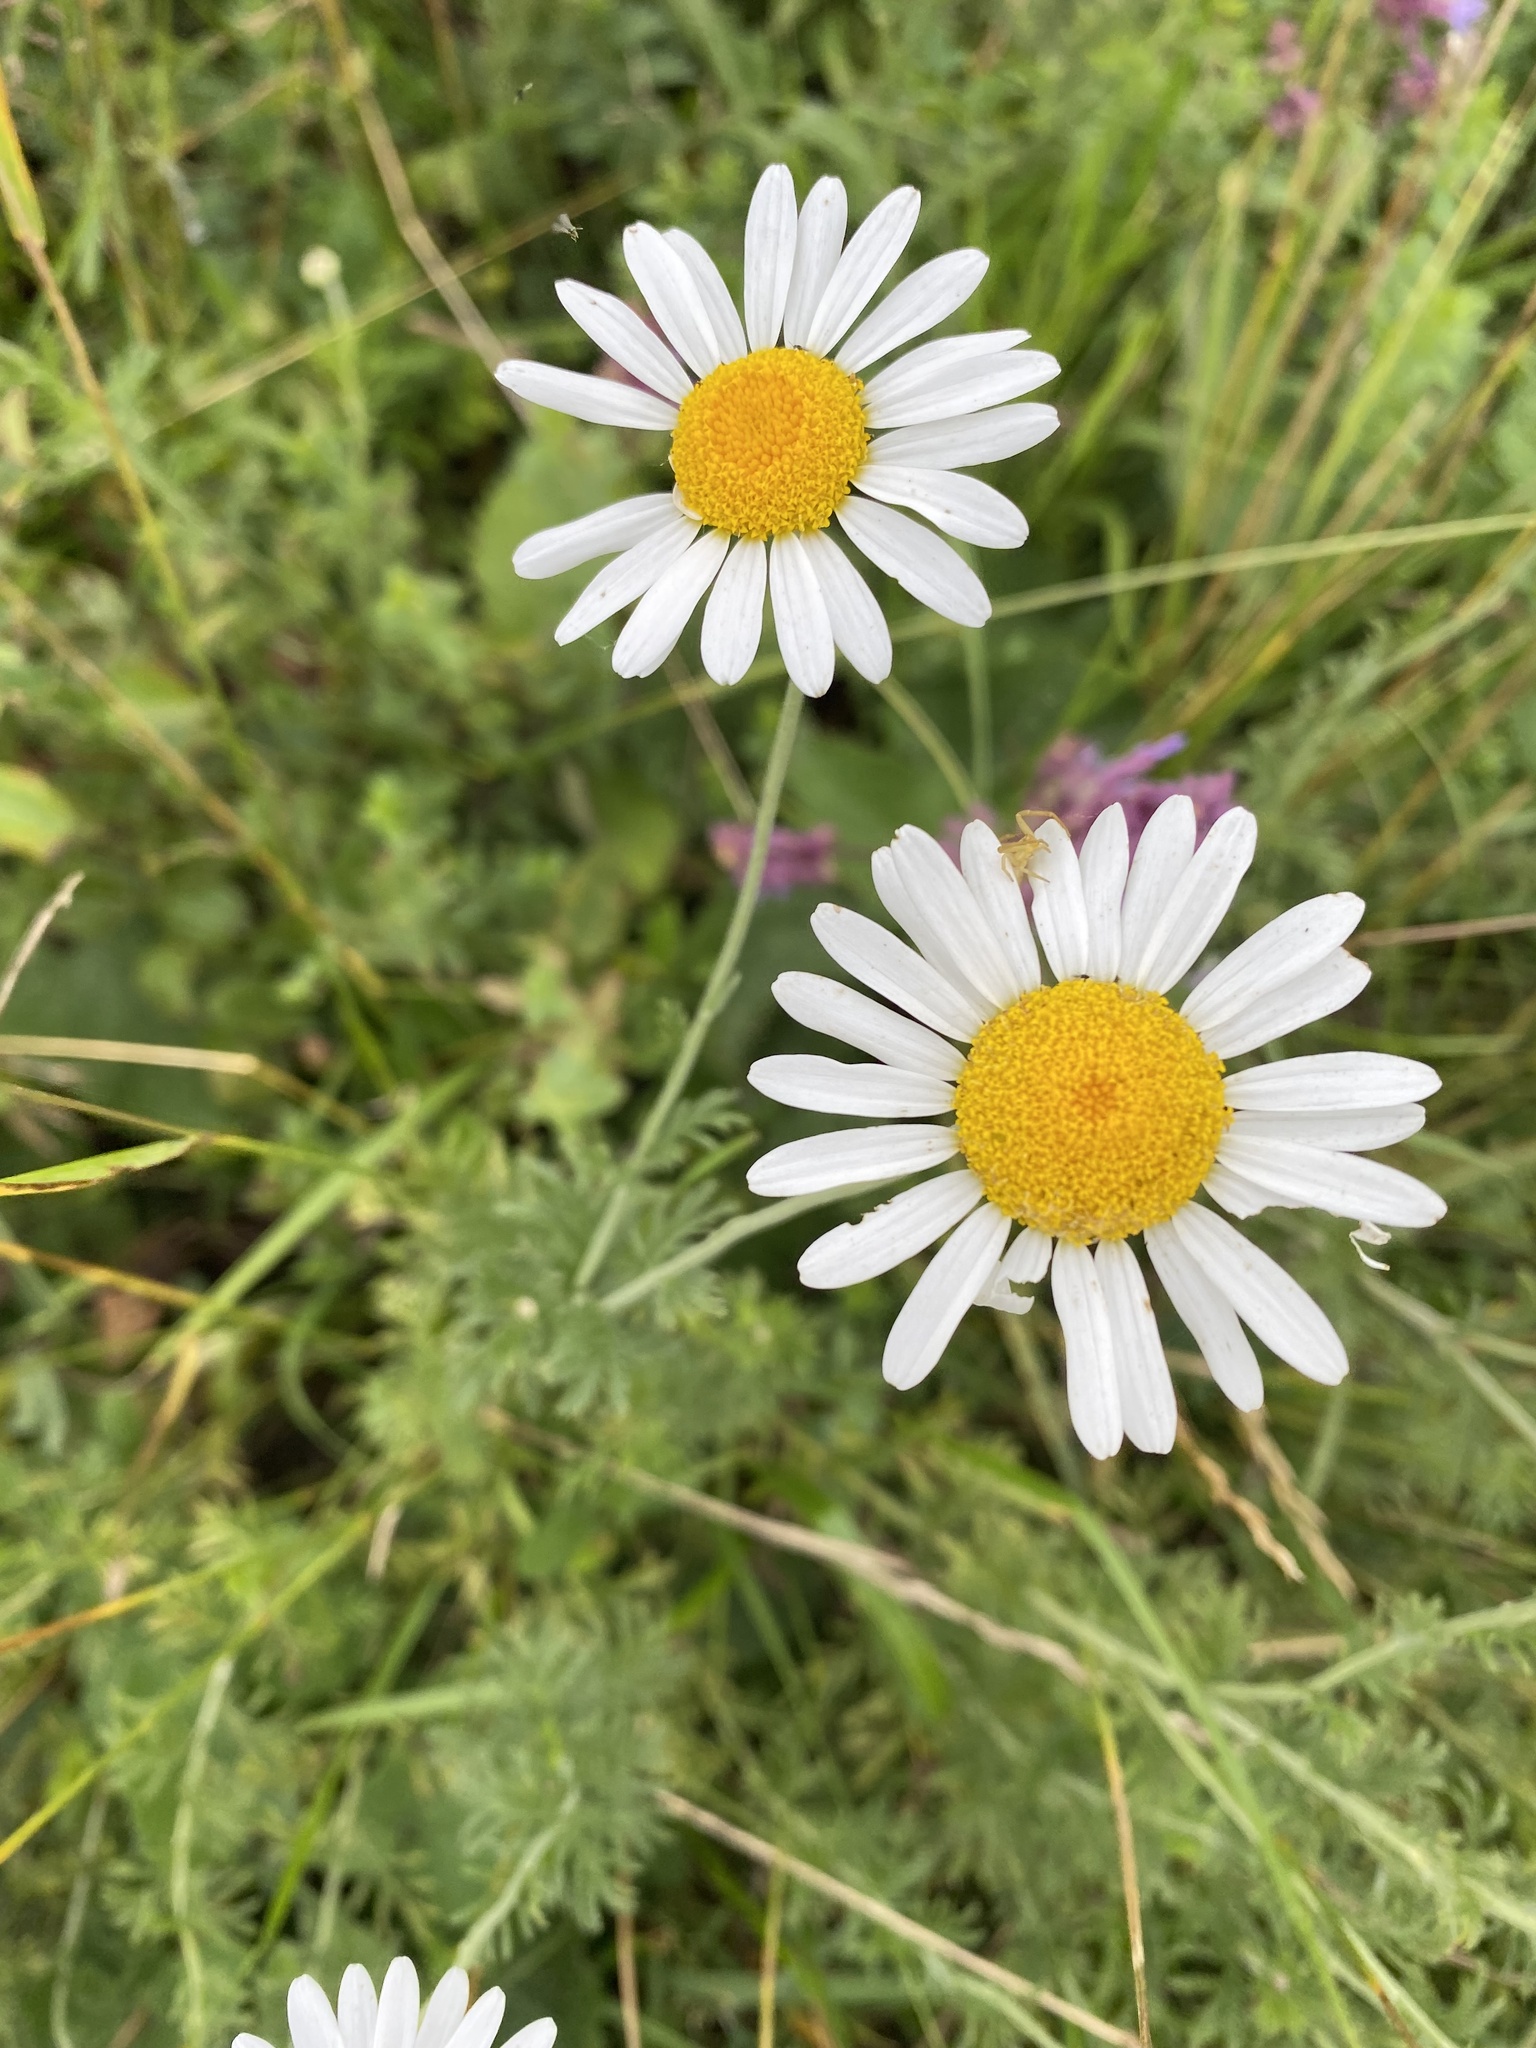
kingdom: Plantae
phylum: Tracheophyta
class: Magnoliopsida
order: Asterales
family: Asteraceae
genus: Cota
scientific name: Cota
